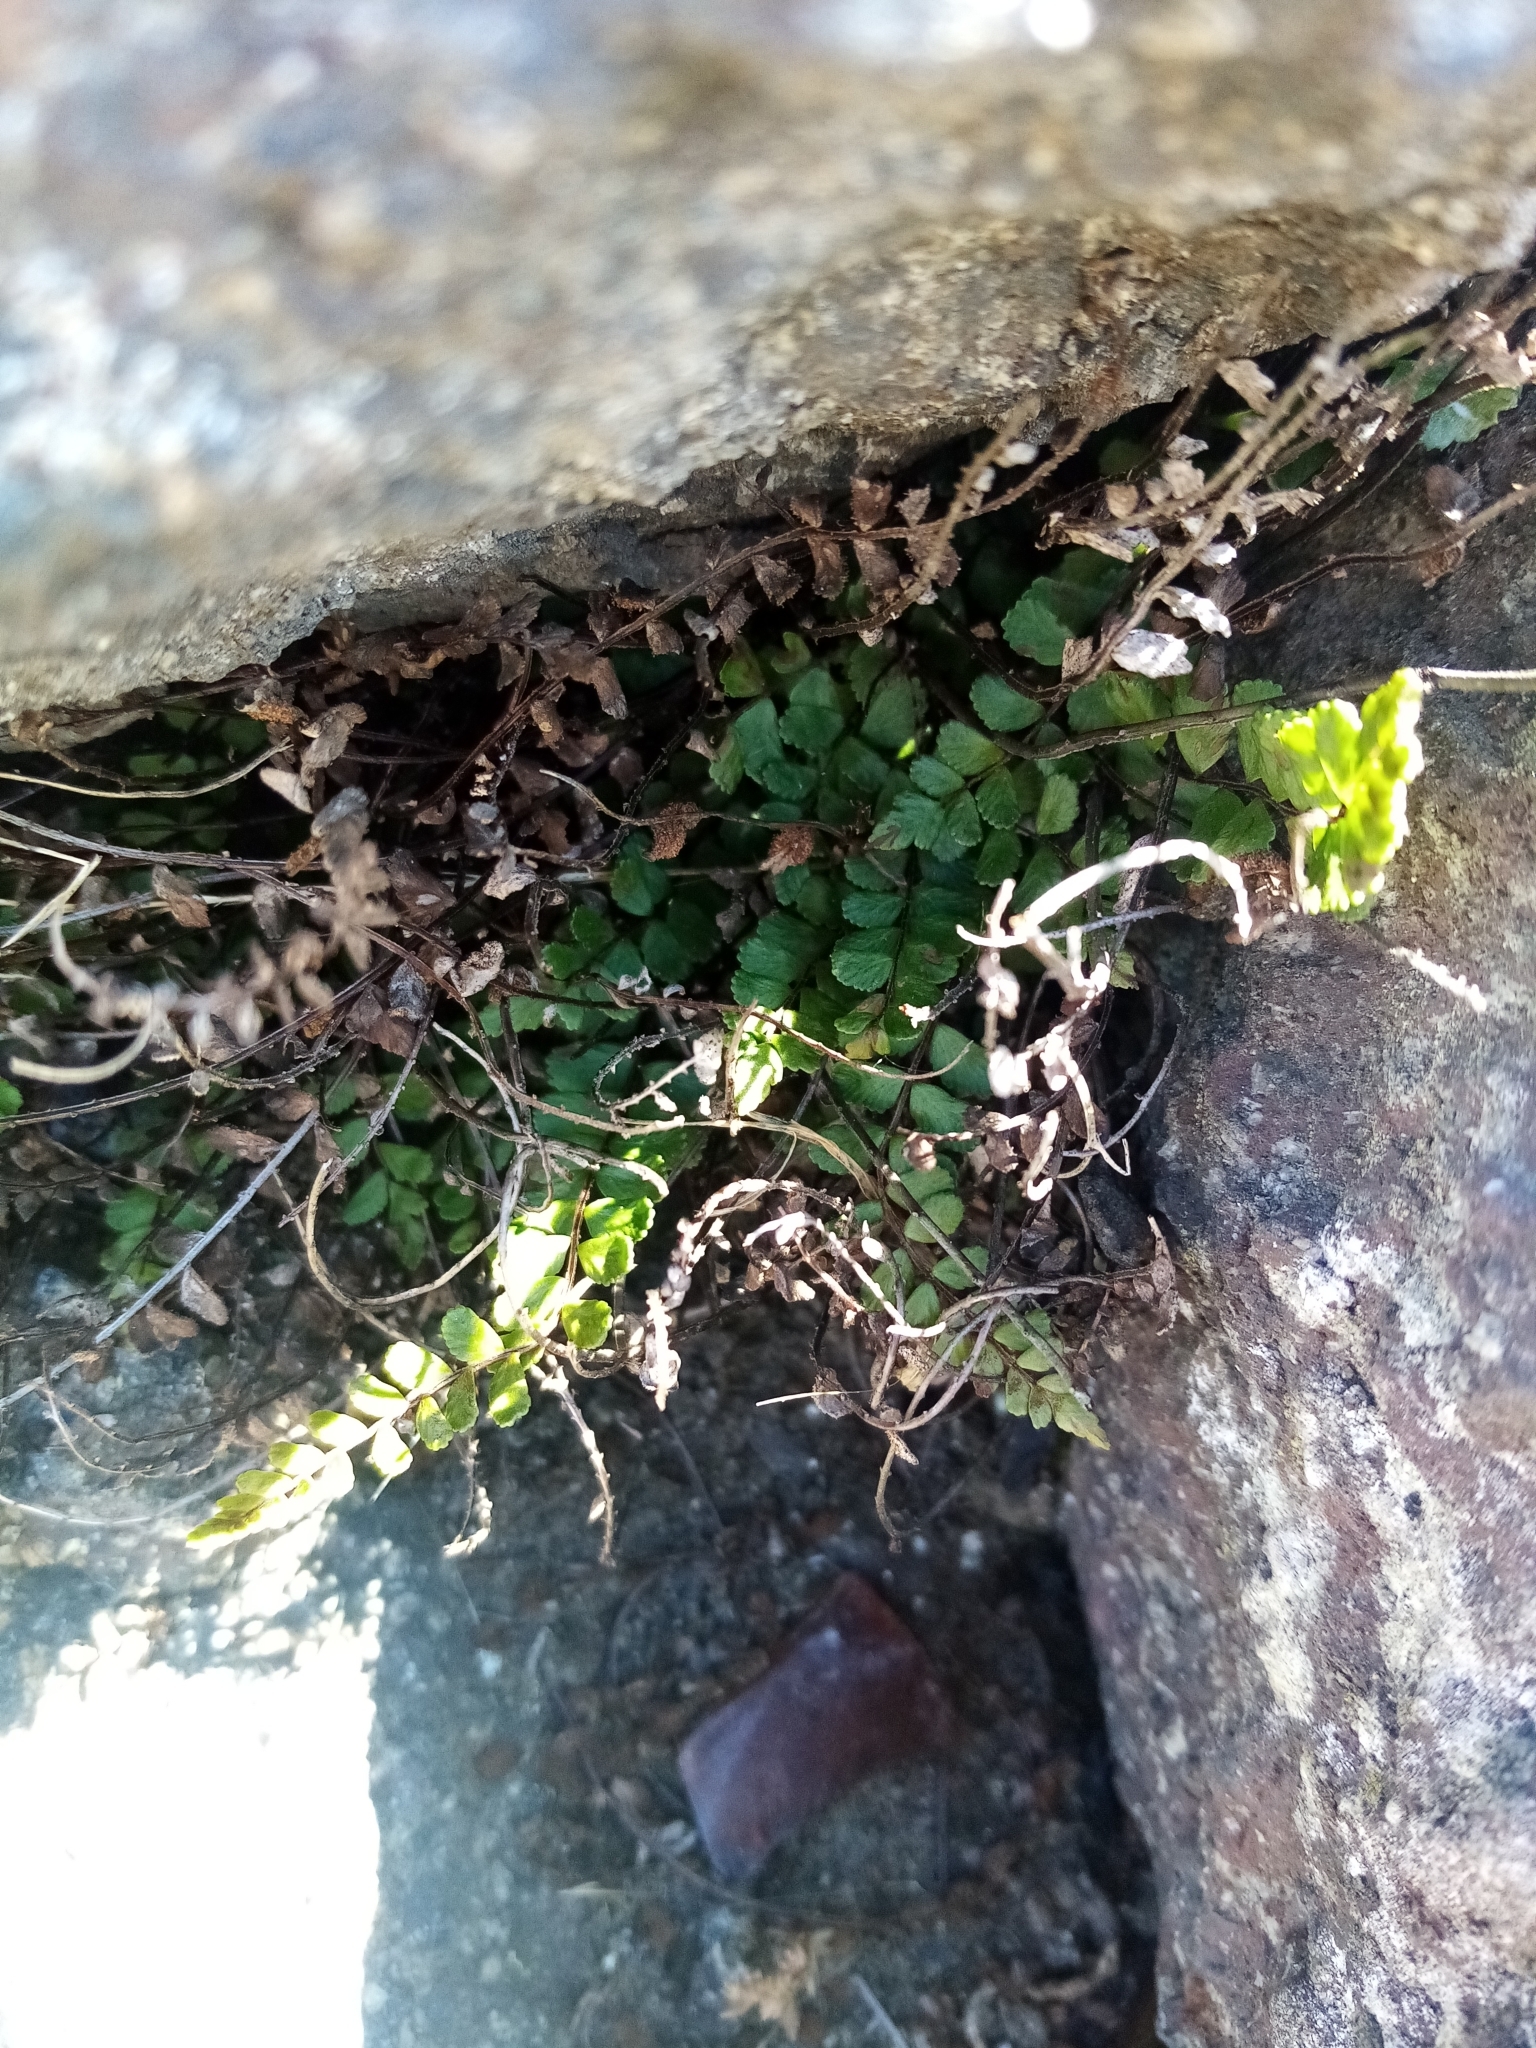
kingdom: Plantae
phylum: Tracheophyta
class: Polypodiopsida
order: Polypodiales
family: Aspleniaceae
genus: Asplenium
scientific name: Asplenium trichomanes
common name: Maidenhair spleenwort
